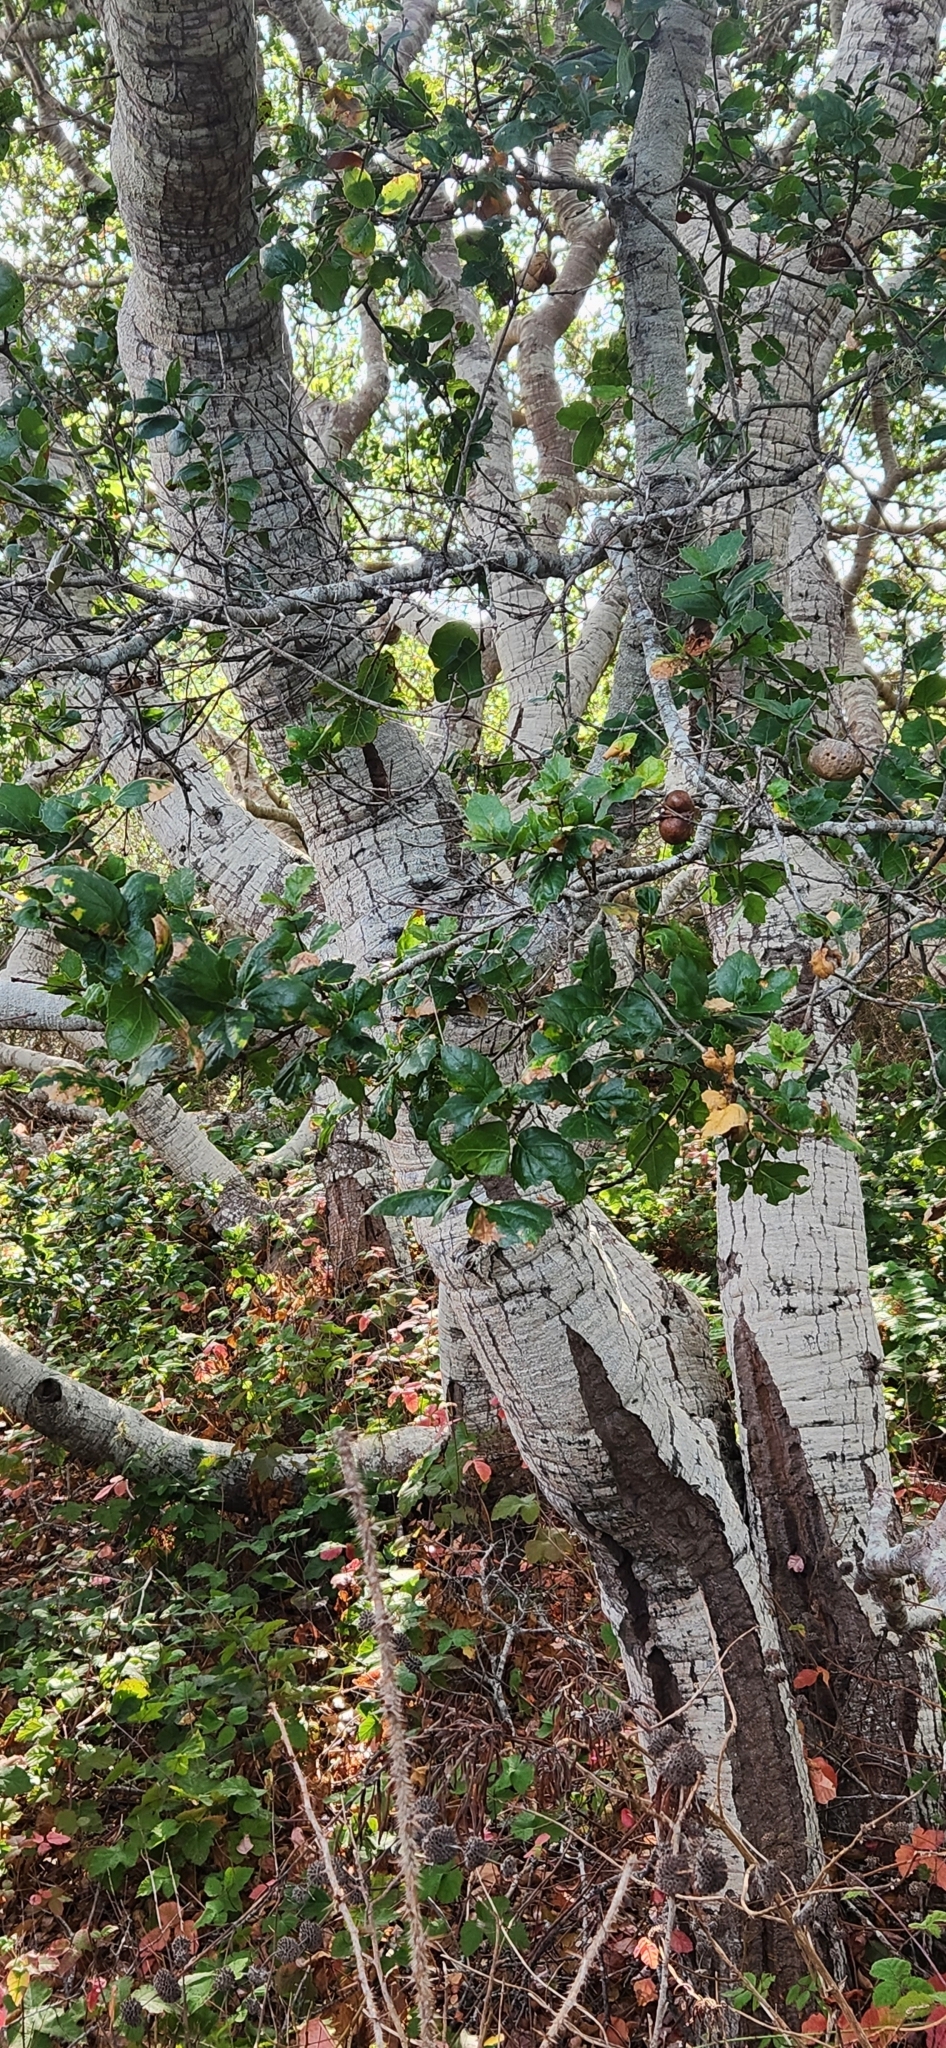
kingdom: Plantae
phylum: Tracheophyta
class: Magnoliopsida
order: Fagales
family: Fagaceae
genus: Quercus
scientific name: Quercus agrifolia
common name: California live oak
